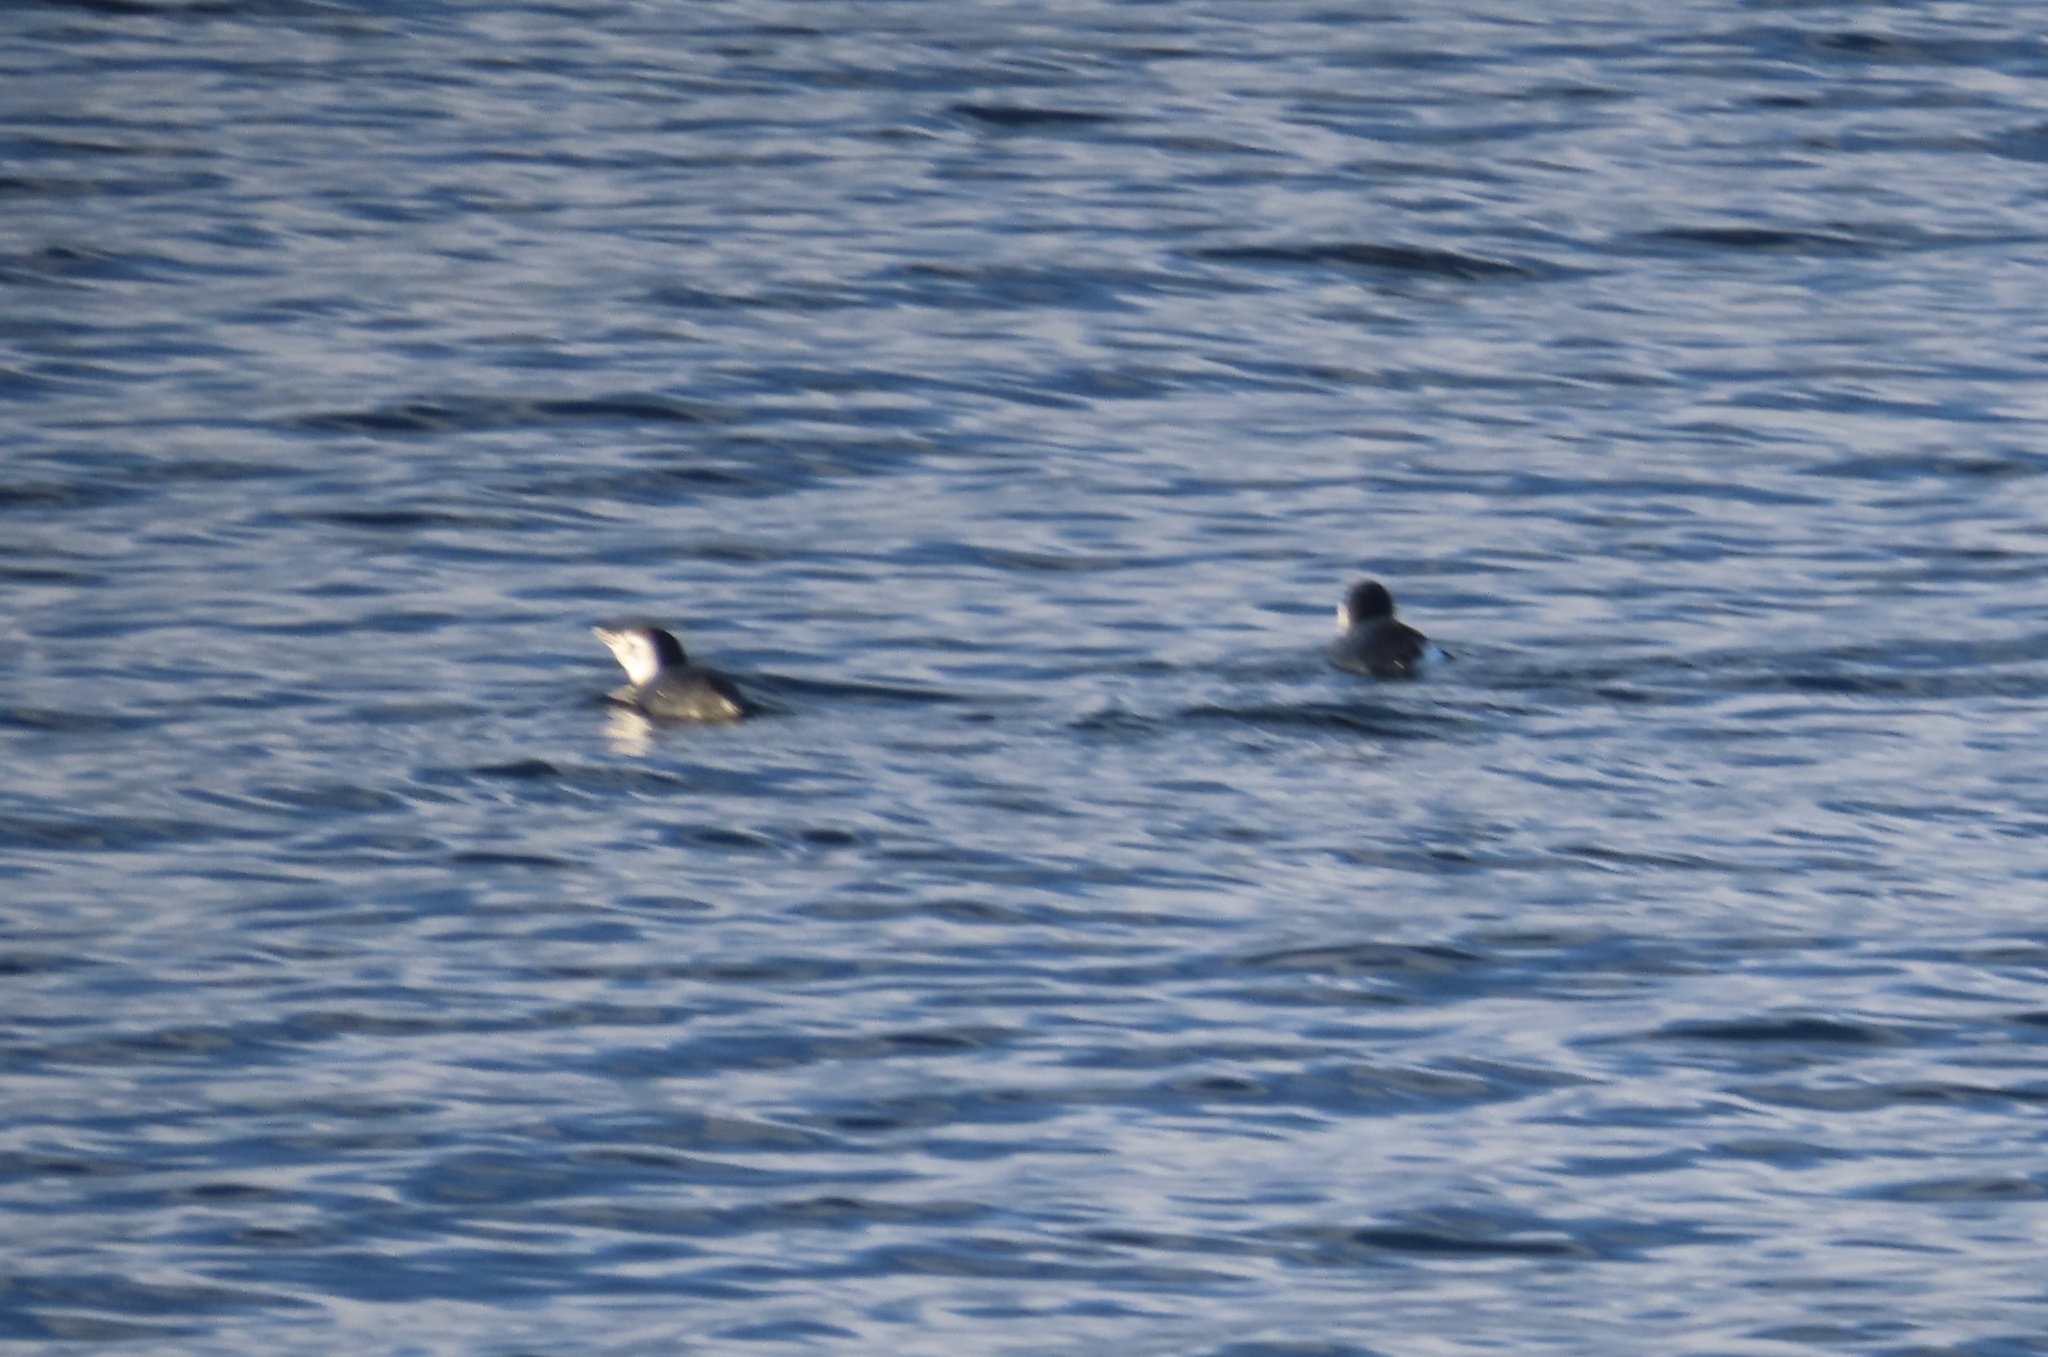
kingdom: Animalia
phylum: Chordata
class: Aves
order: Sphenisciformes
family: Spheniscidae
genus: Spheniscus
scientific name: Spheniscus magellanicus
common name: Magellanic penguin
